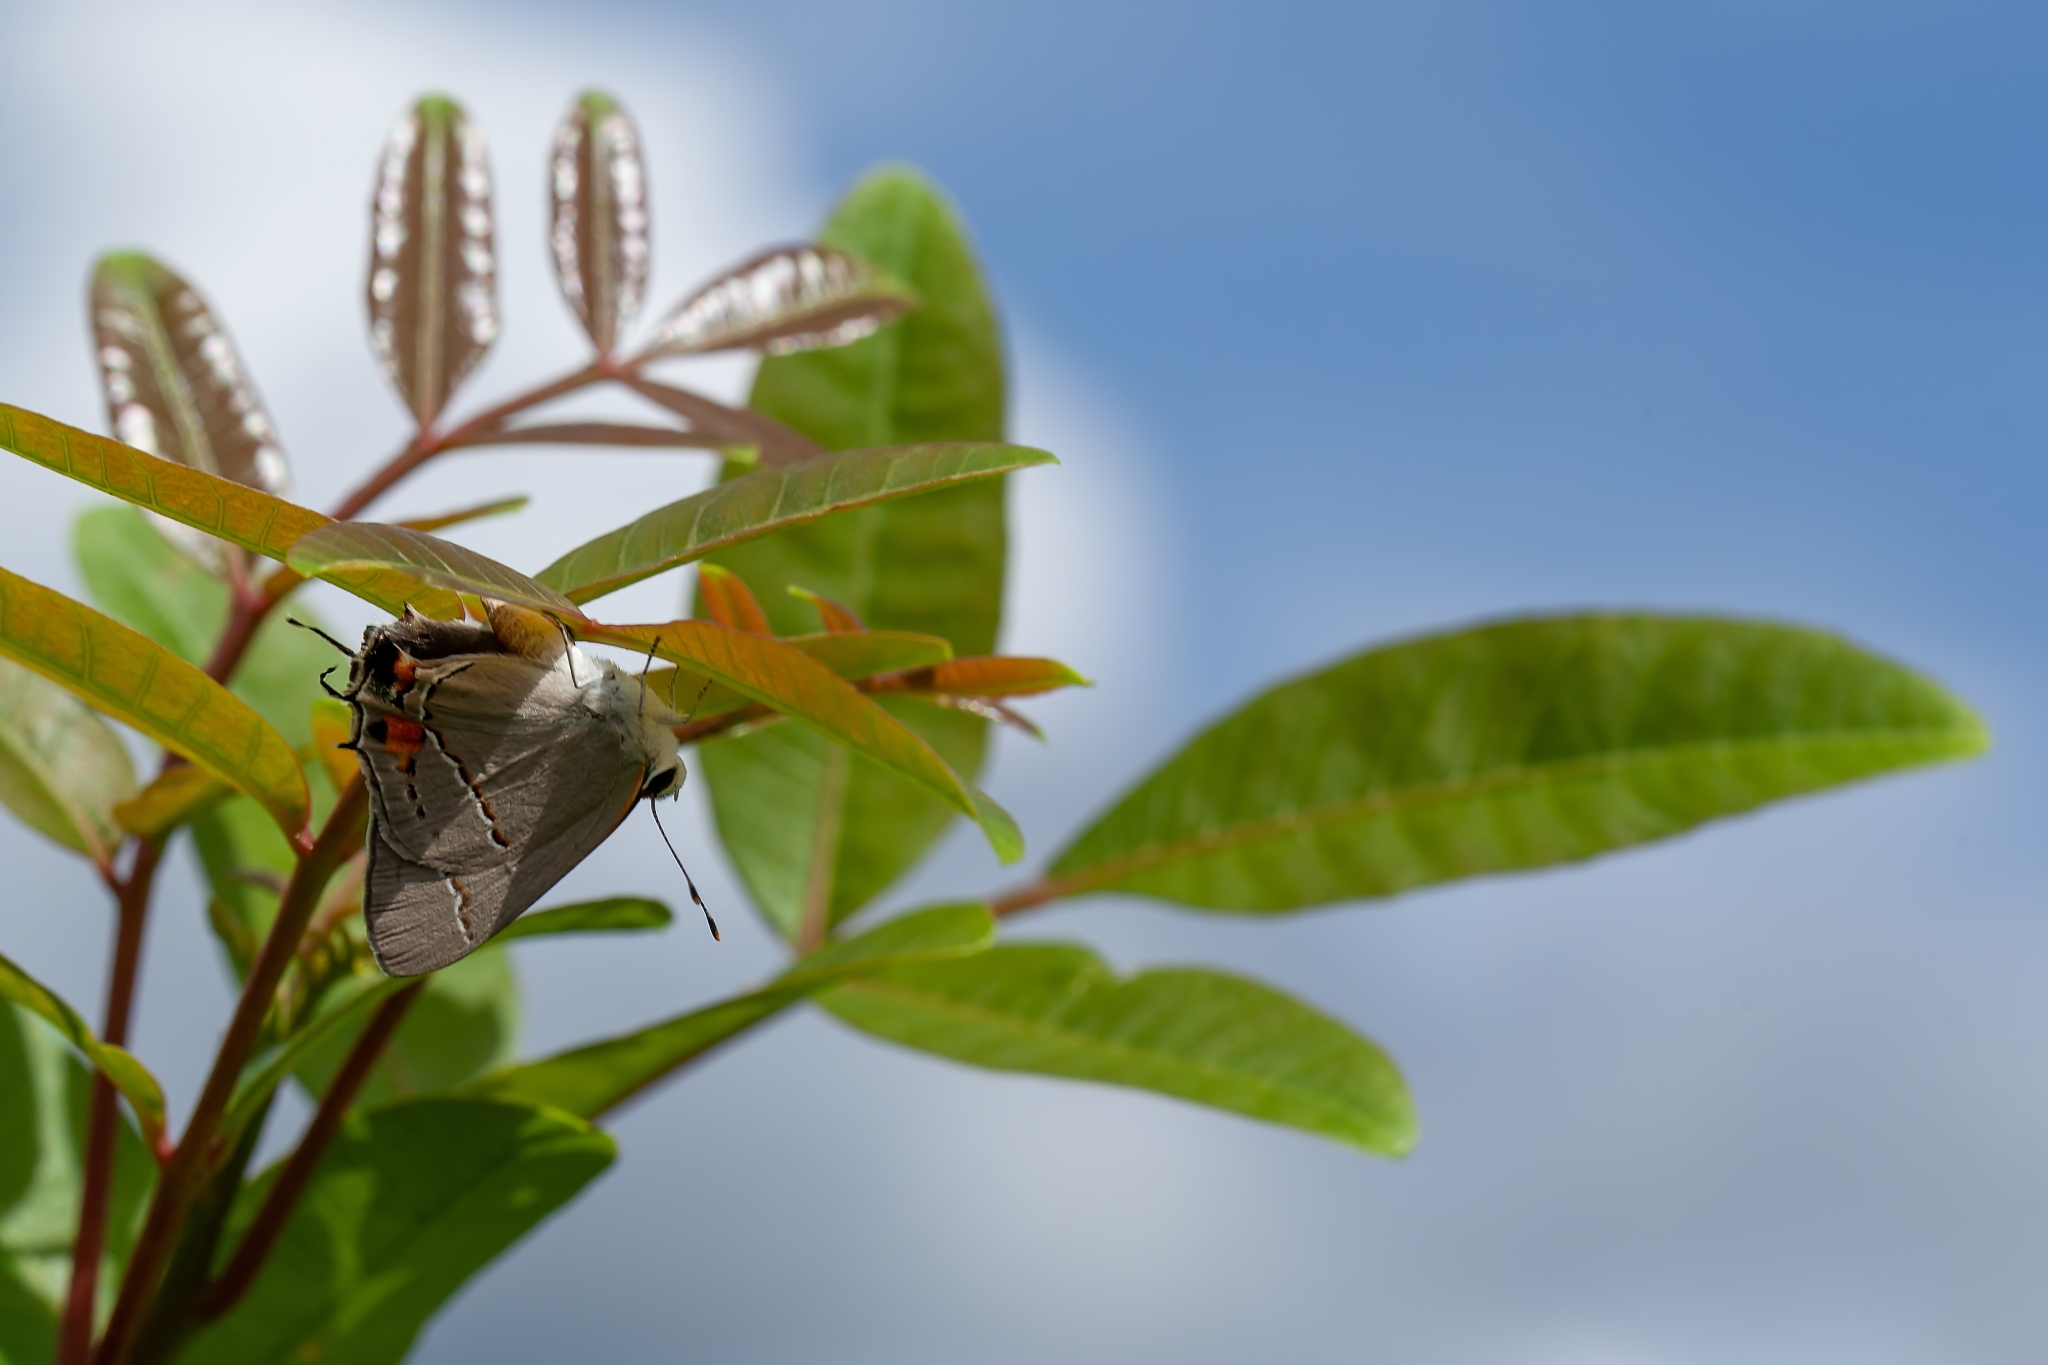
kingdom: Animalia
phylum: Arthropoda
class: Insecta
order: Lepidoptera
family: Lycaenidae
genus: Strymon
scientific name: Strymon melinus
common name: Gray hairstreak
